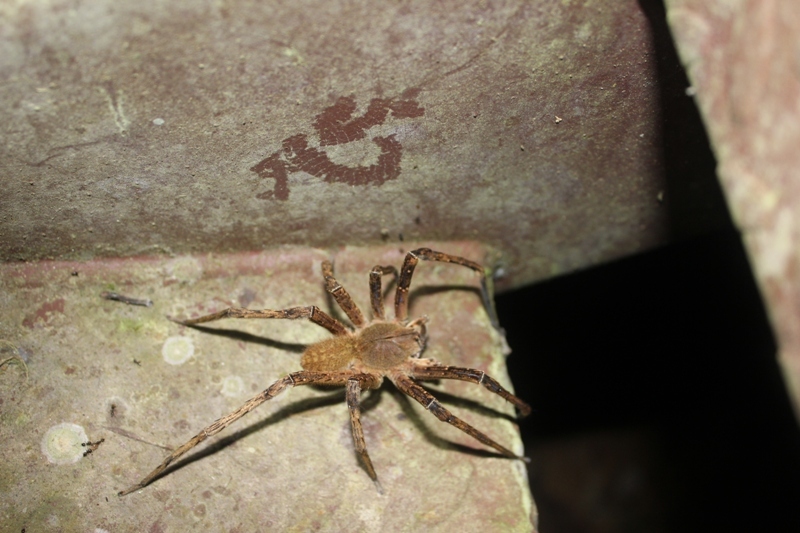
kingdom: Animalia
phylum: Arthropoda
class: Arachnida
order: Araneae
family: Ctenidae
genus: Phoneutria
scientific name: Phoneutria fera
